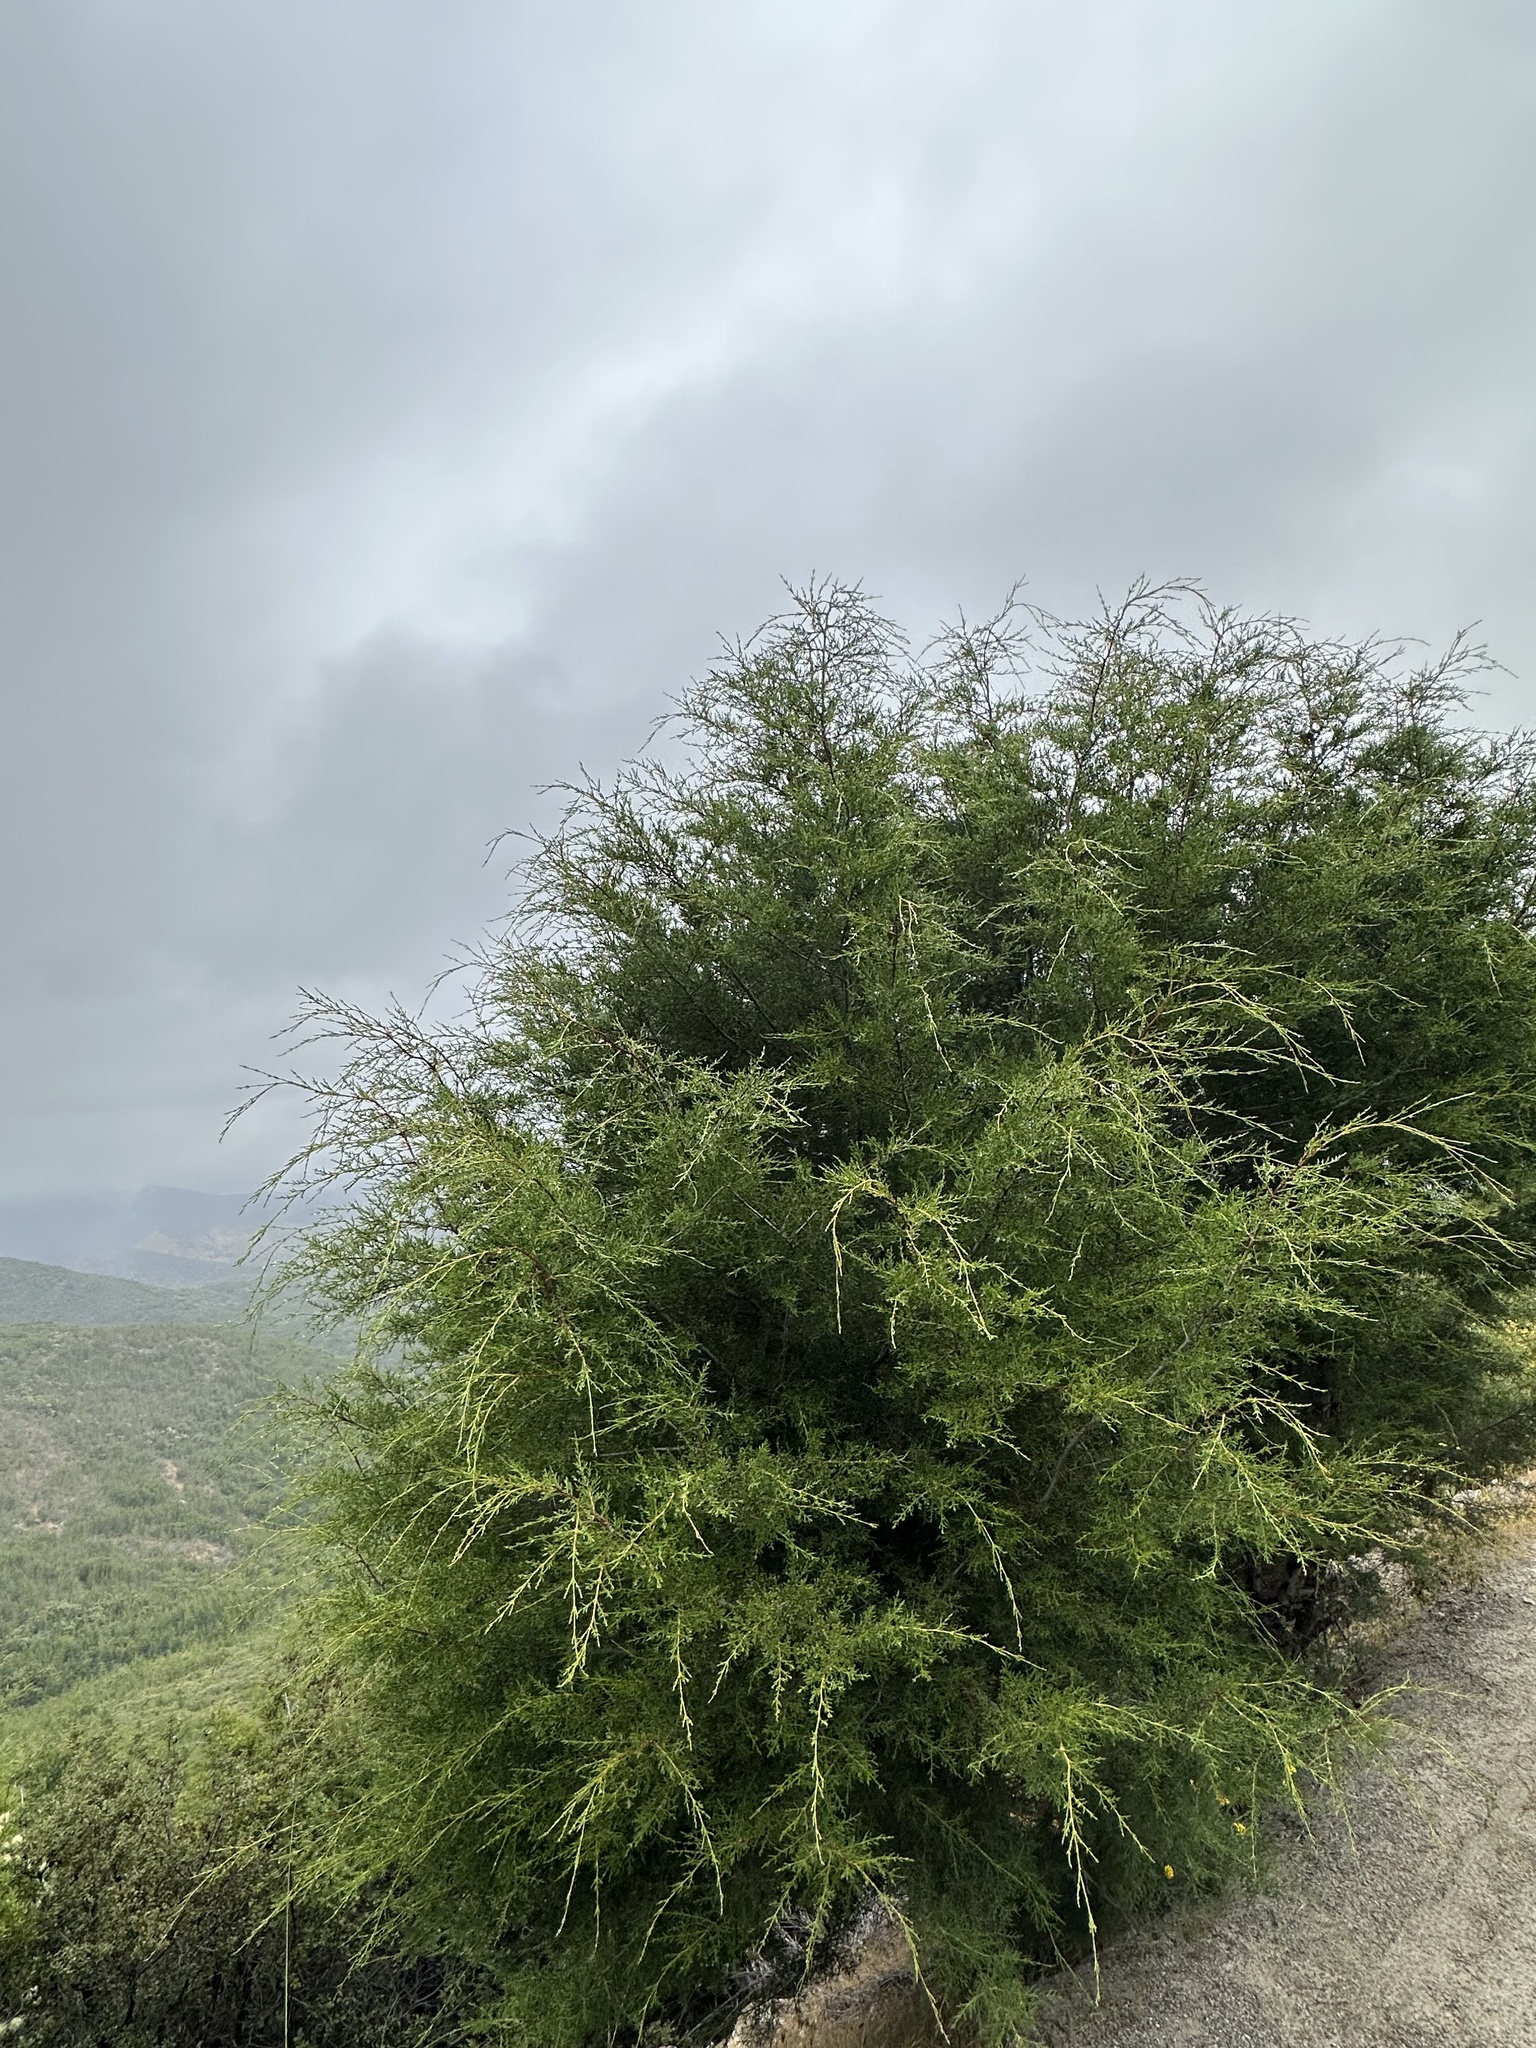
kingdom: Plantae
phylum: Tracheophyta
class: Pinopsida
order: Pinales
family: Cupressaceae
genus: Cupressus
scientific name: Cupressus guadalupensis
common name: Forbes cypress
